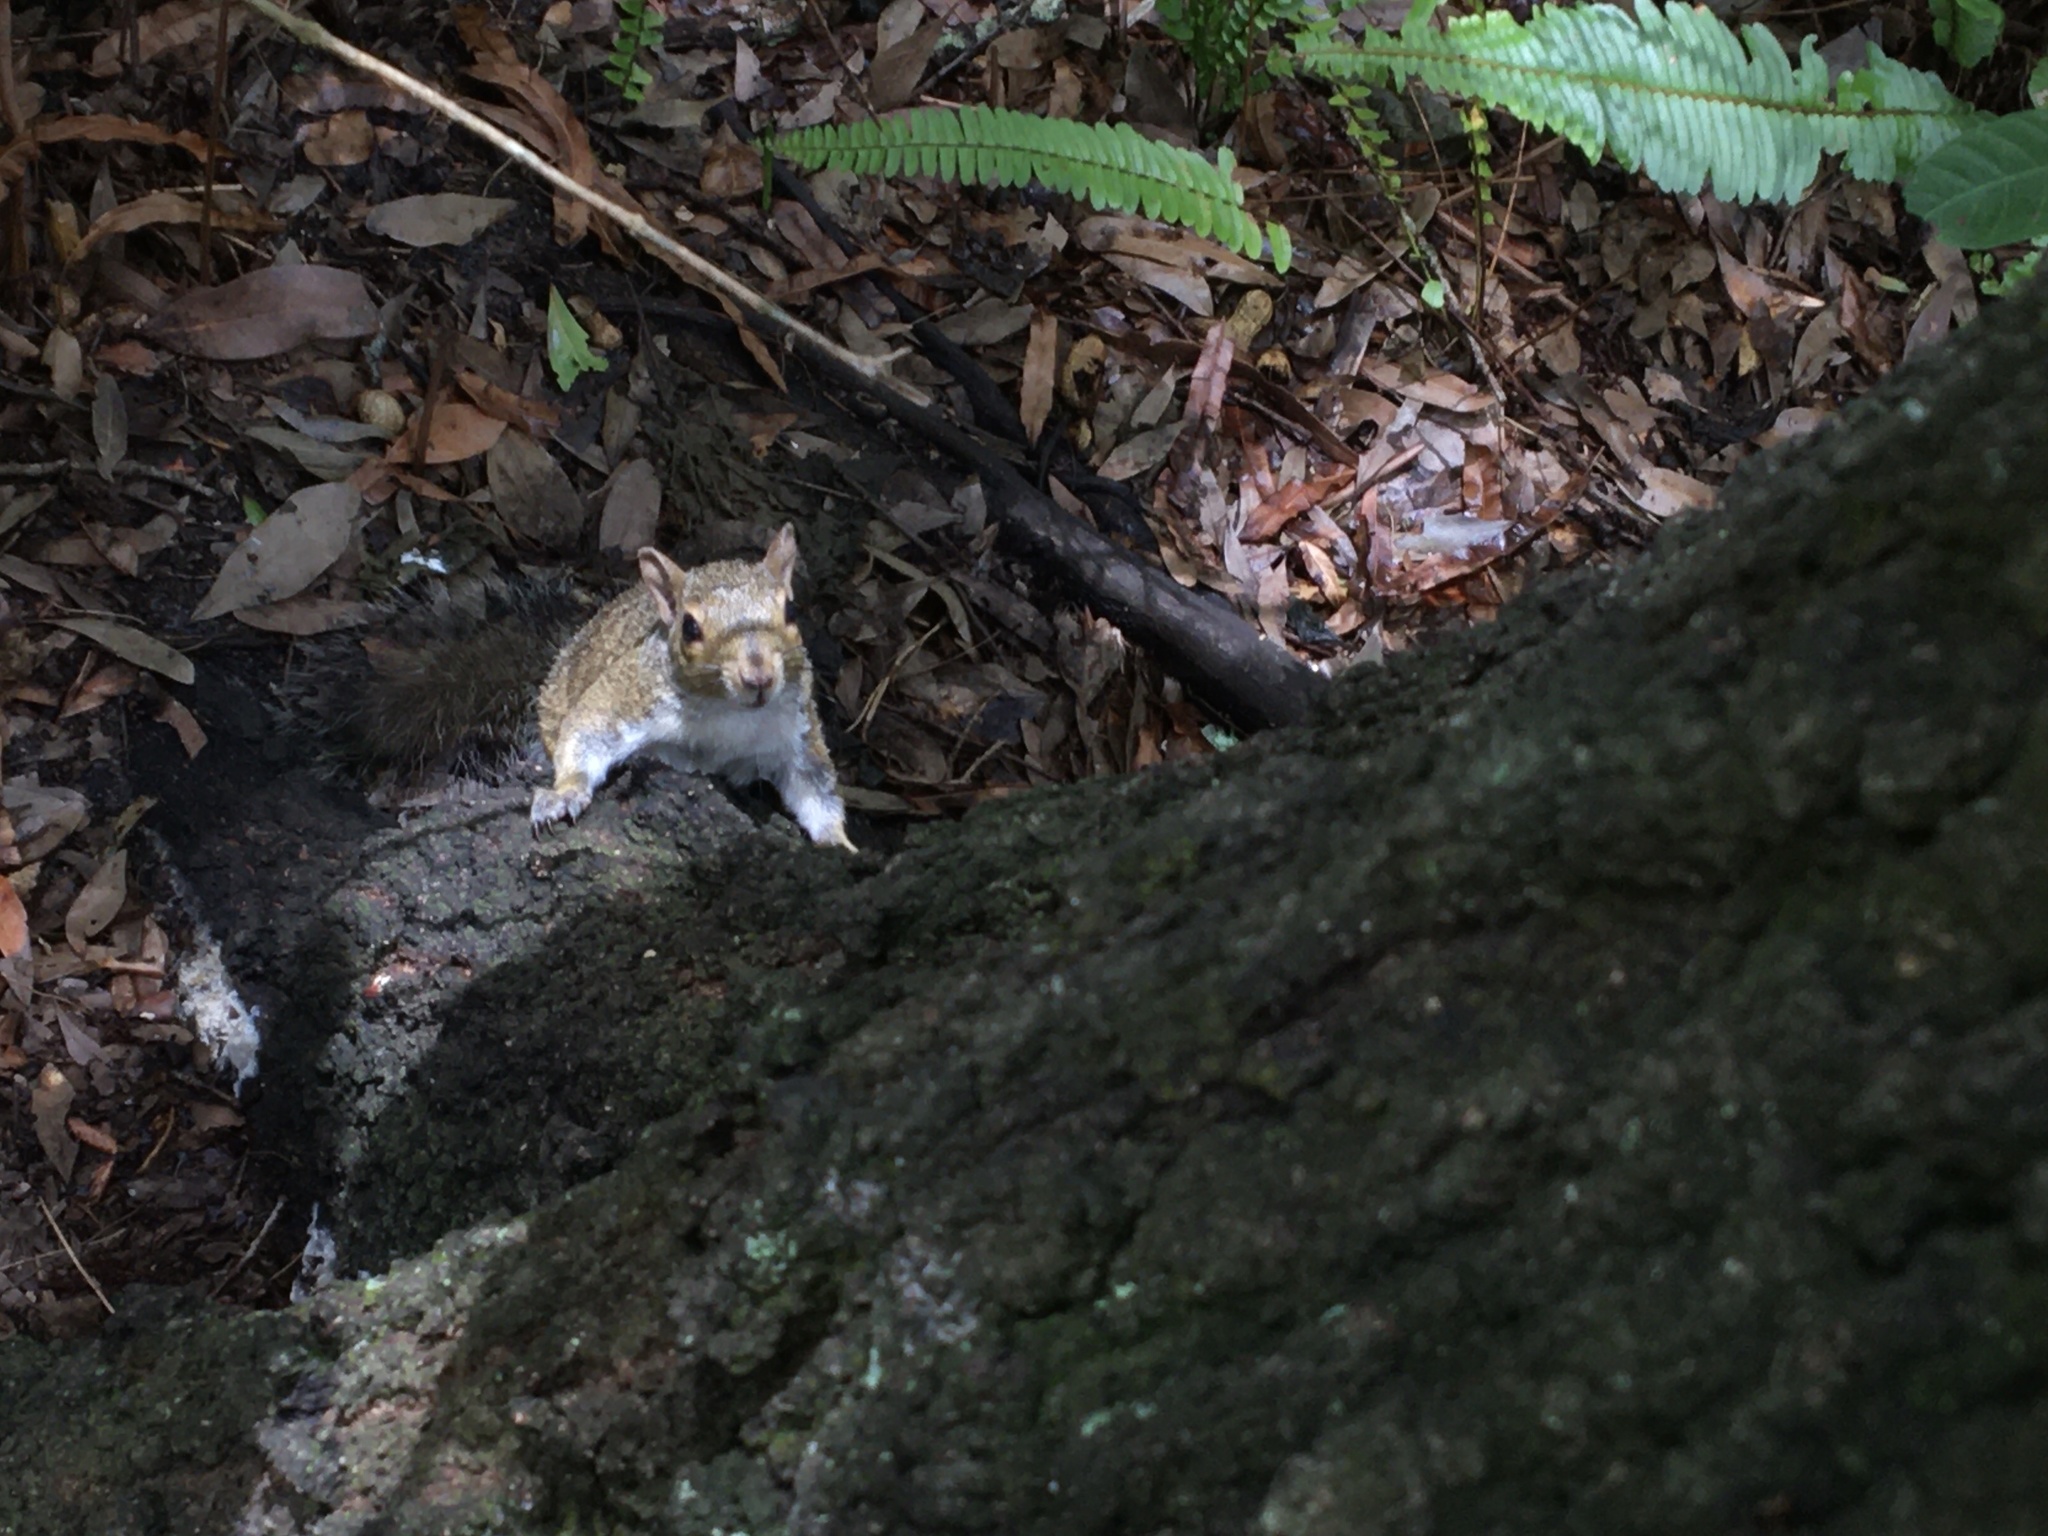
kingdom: Animalia
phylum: Chordata
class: Mammalia
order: Rodentia
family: Sciuridae
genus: Sciurus
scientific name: Sciurus carolinensis
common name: Eastern gray squirrel
